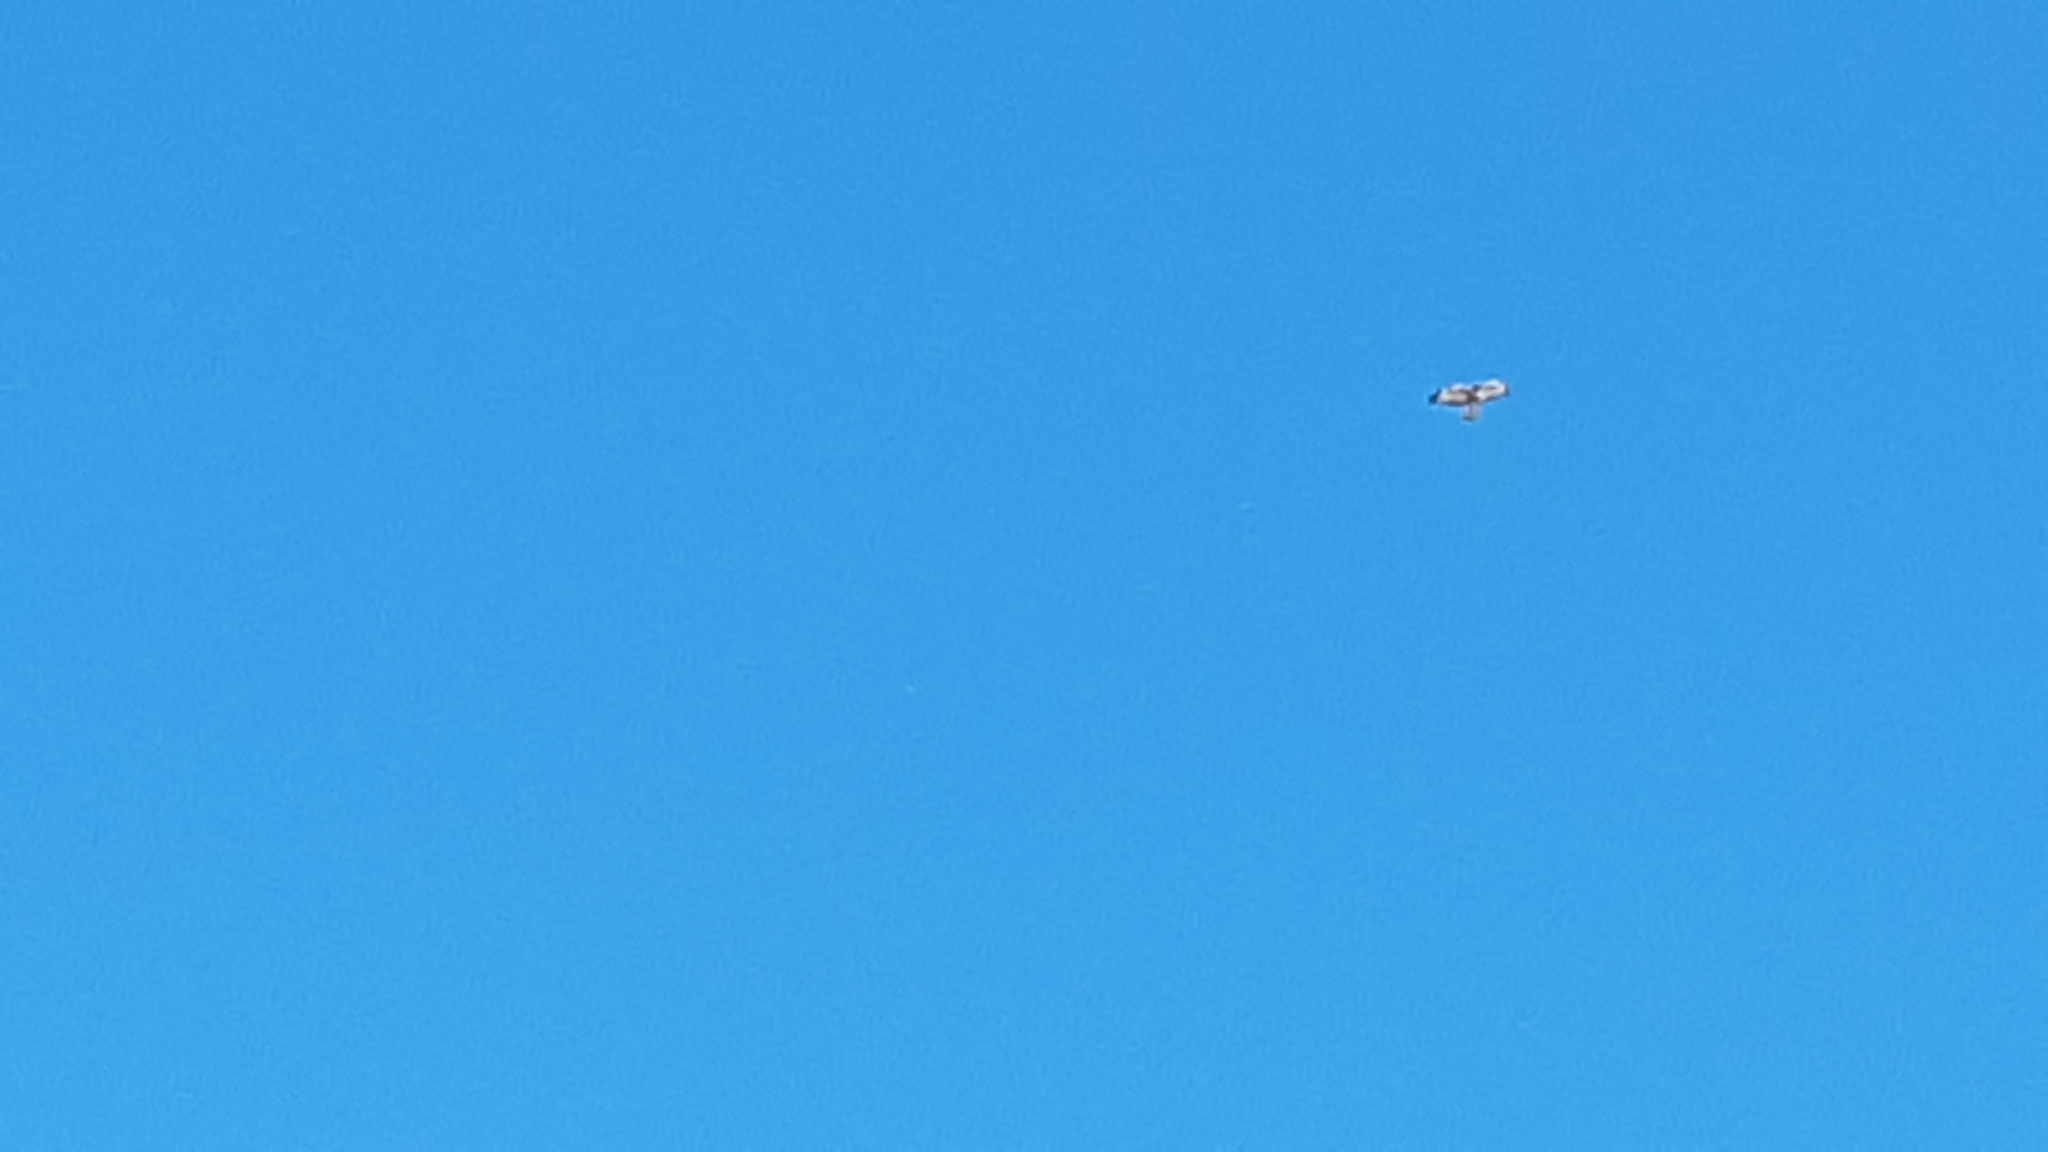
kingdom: Animalia
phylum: Chordata
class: Aves
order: Accipitriformes
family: Accipitridae
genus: Buteo
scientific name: Buteo jamaicensis
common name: Red-tailed hawk
